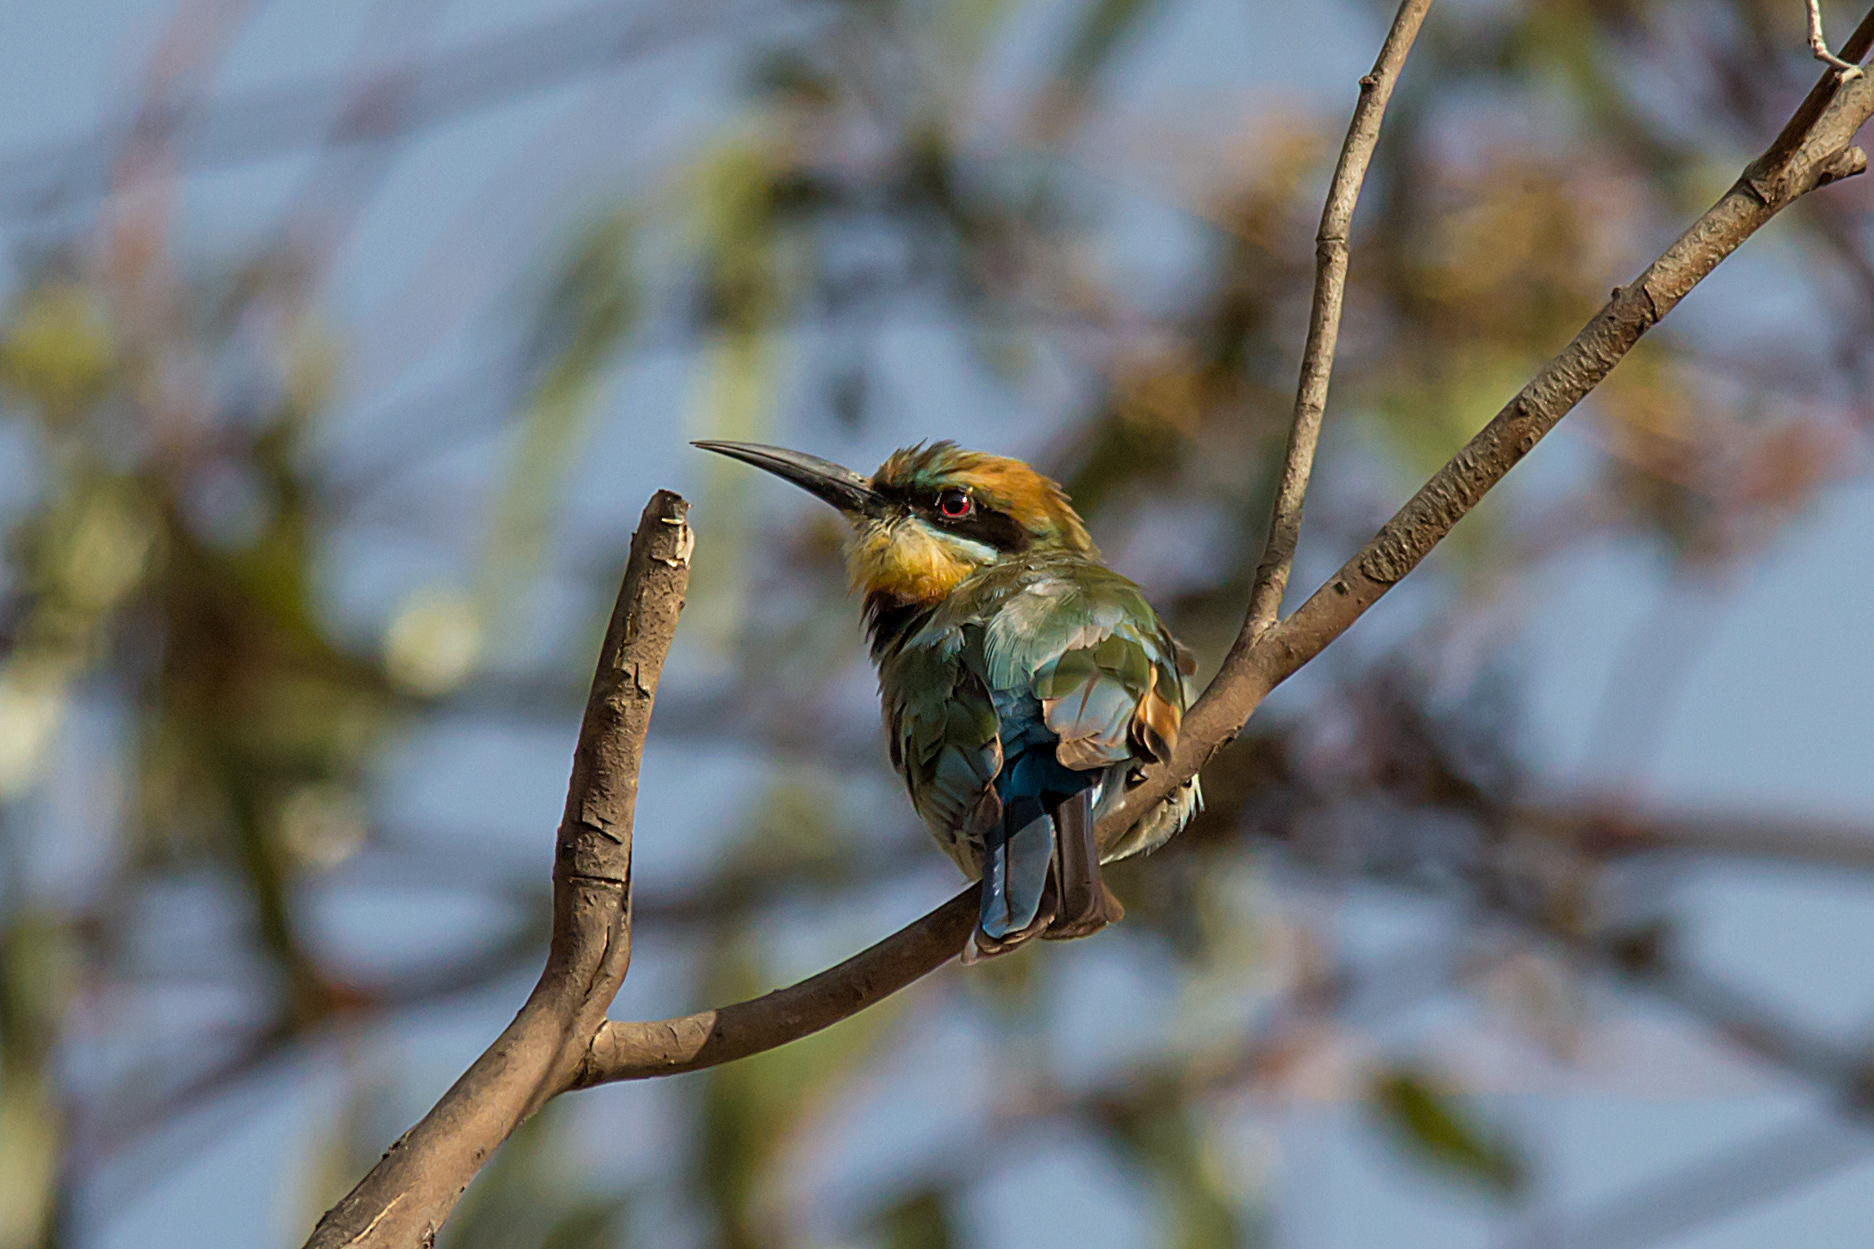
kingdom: Animalia
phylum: Chordata
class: Aves
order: Coraciiformes
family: Meropidae
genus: Merops
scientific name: Merops ornatus
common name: Rainbow bee-eater
